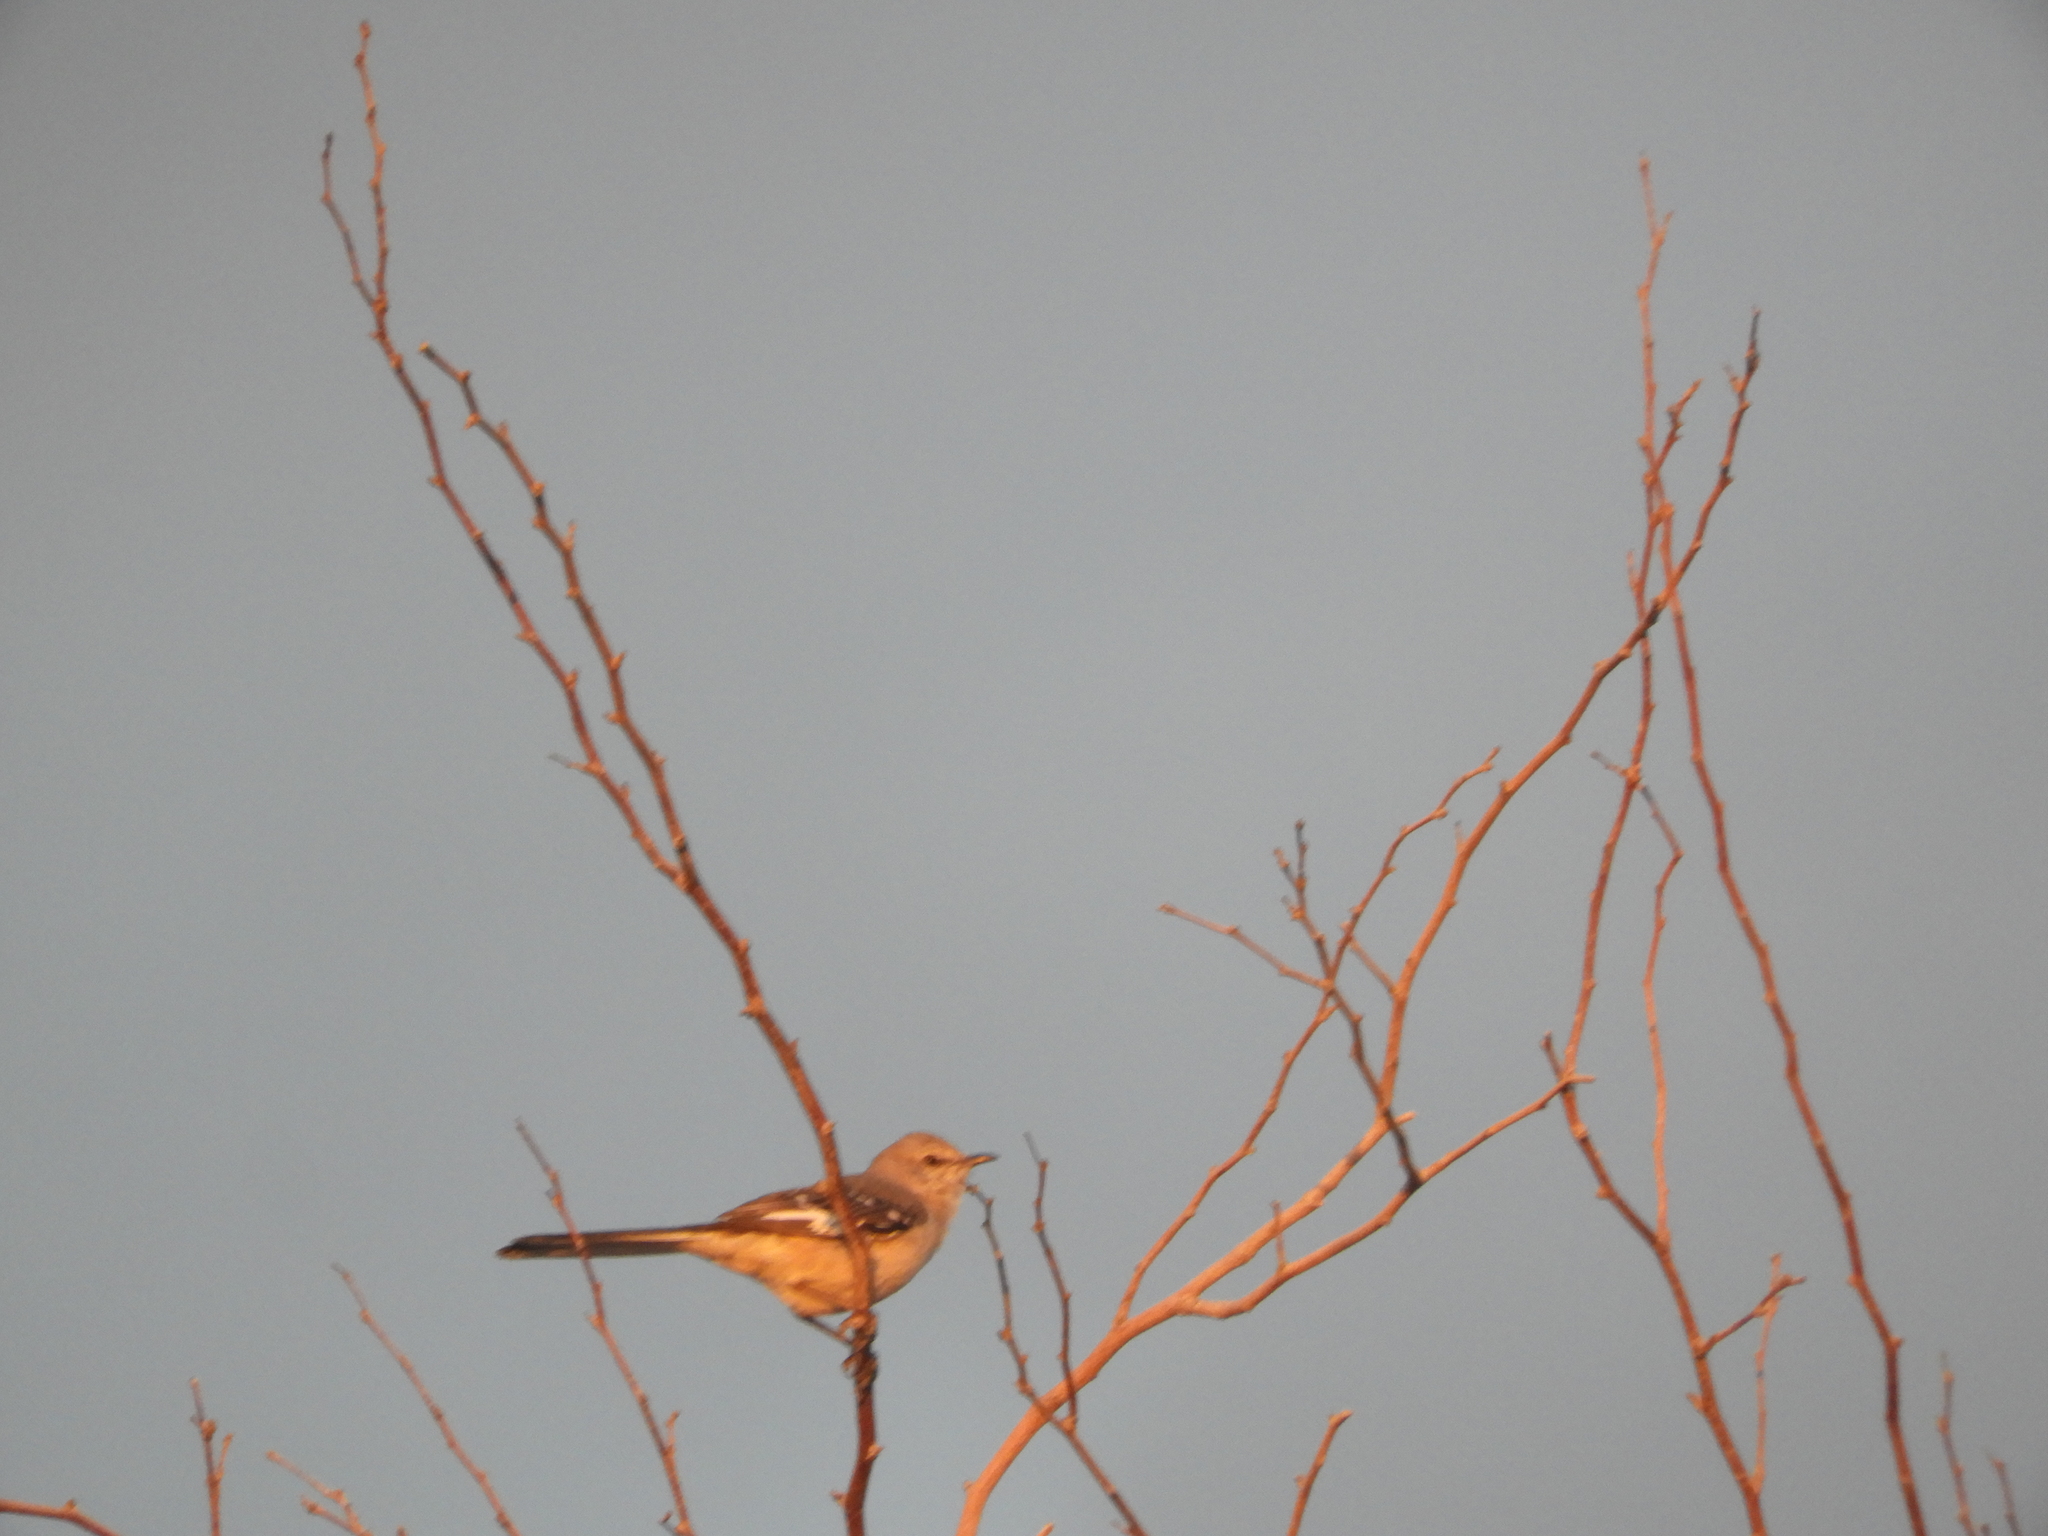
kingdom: Animalia
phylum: Chordata
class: Aves
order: Passeriformes
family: Mimidae
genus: Mimus
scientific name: Mimus polyglottos
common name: Northern mockingbird
